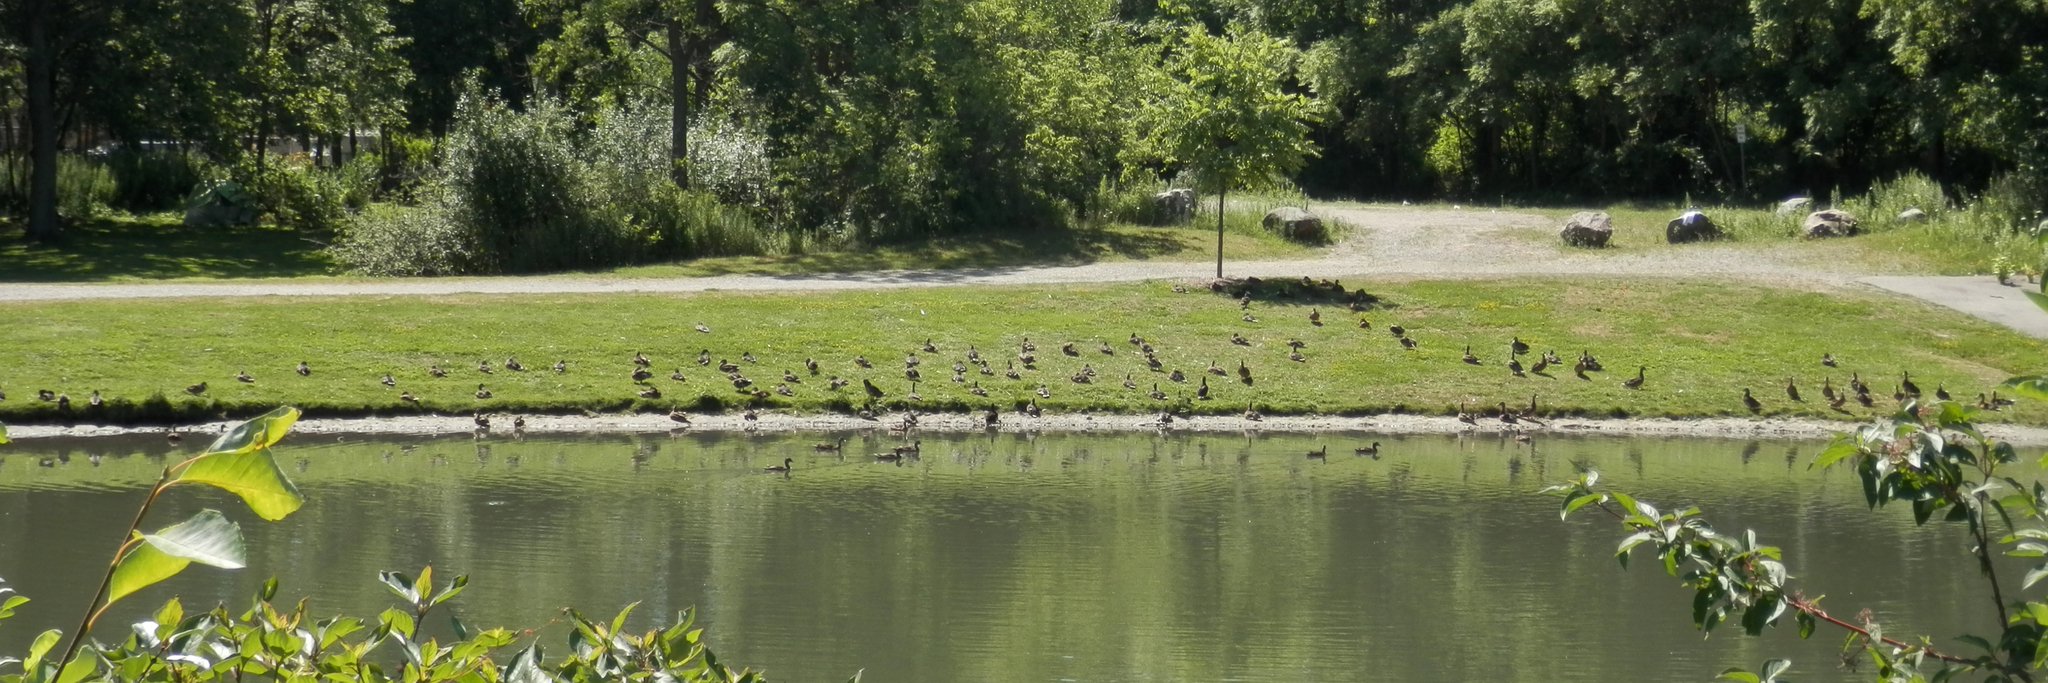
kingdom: Animalia
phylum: Chordata
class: Aves
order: Anseriformes
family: Anatidae
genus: Anas
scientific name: Anas platyrhynchos
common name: Mallard
